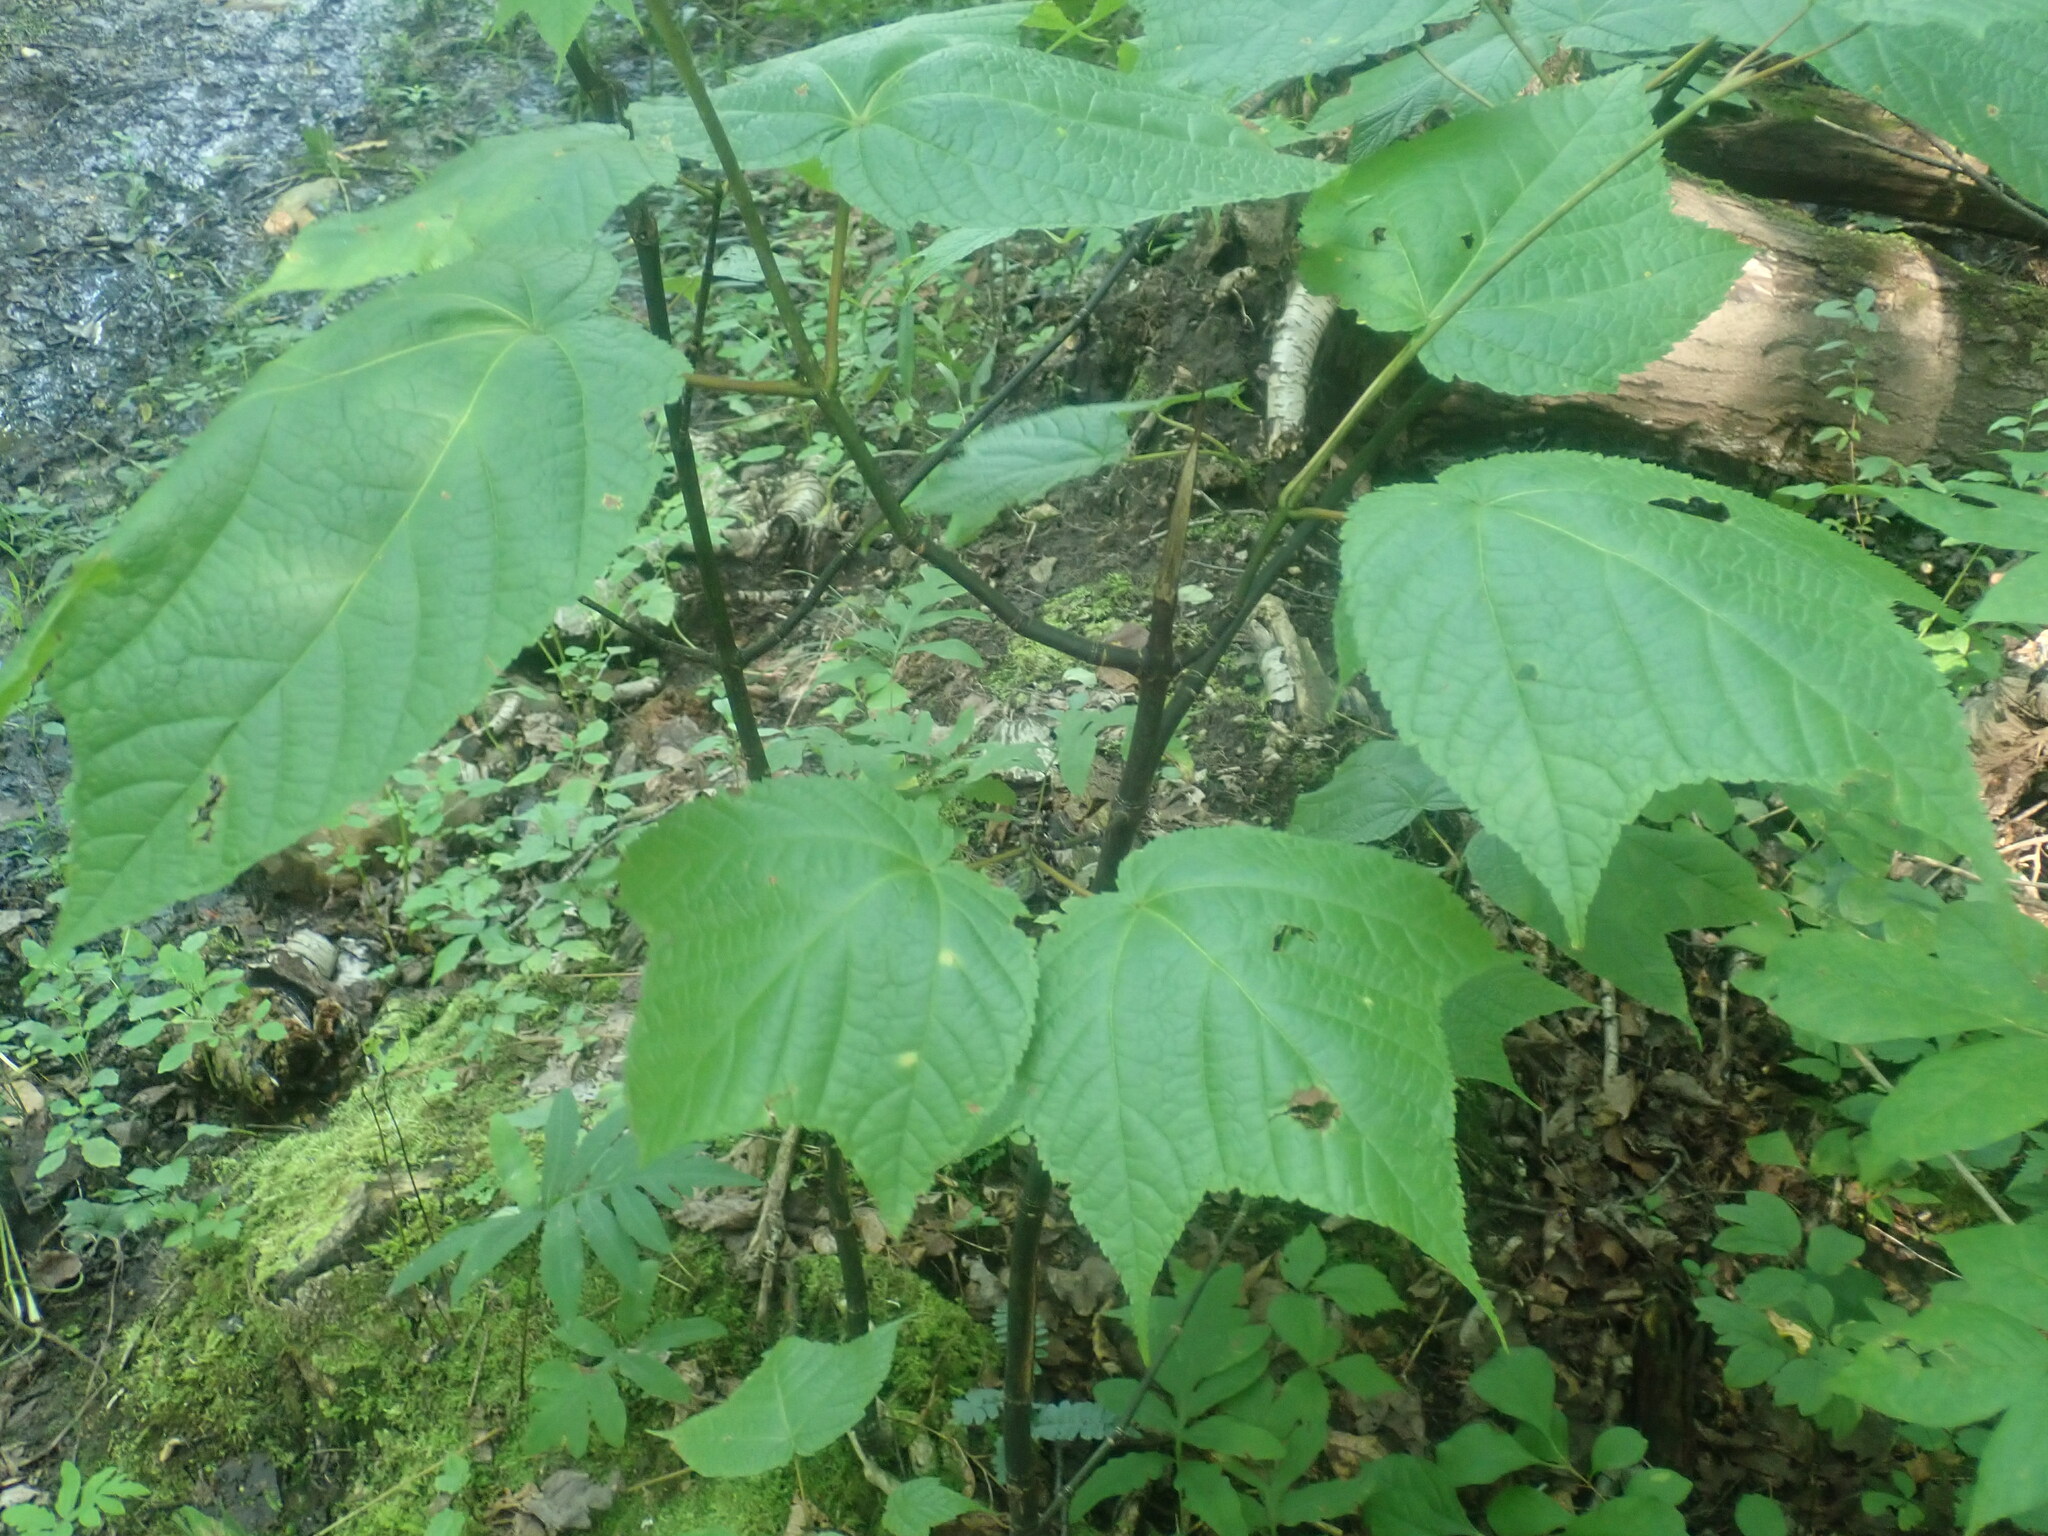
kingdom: Plantae
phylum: Tracheophyta
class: Magnoliopsida
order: Sapindales
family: Sapindaceae
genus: Acer
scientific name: Acer pensylvanicum
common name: Moosewood
